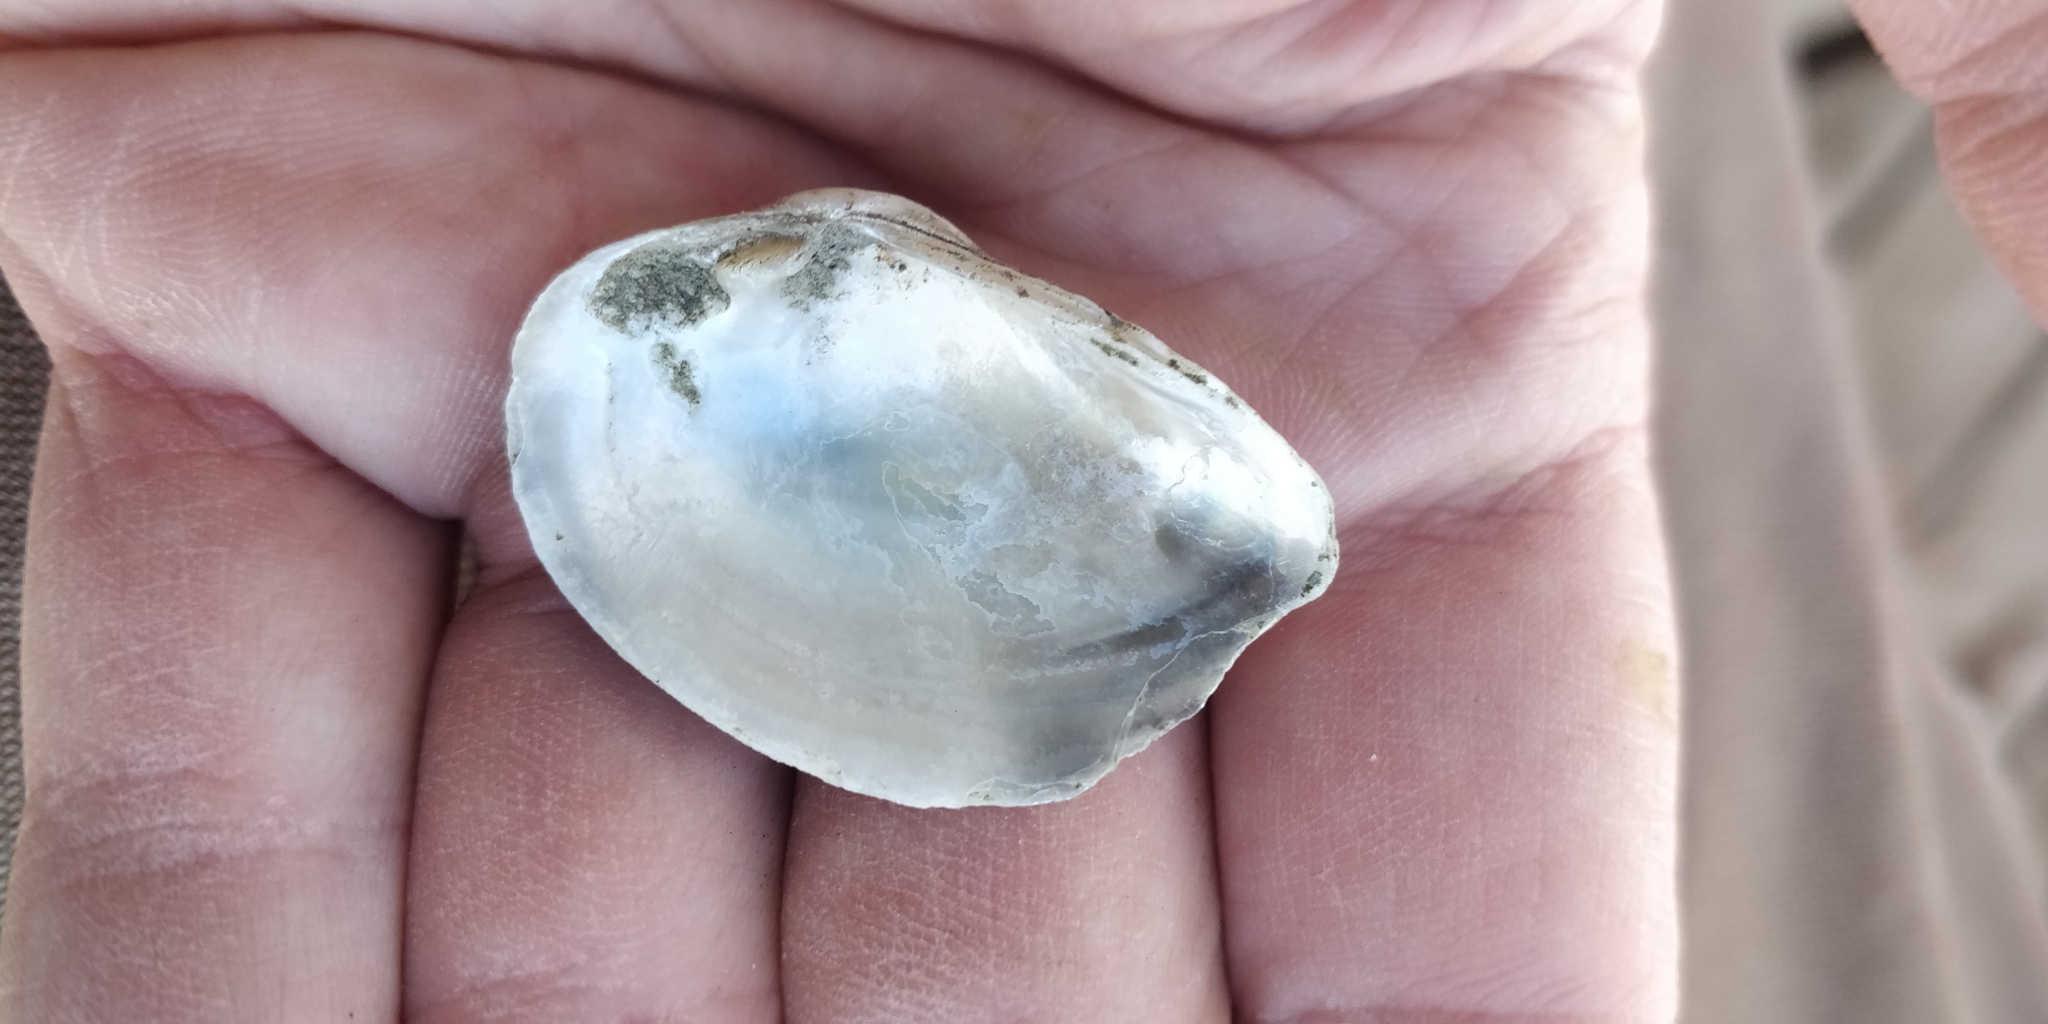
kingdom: Animalia
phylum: Mollusca
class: Bivalvia
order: Unionida
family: Unionidae
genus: Truncilla
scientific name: Truncilla donaciformis
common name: Fawnsfoot
